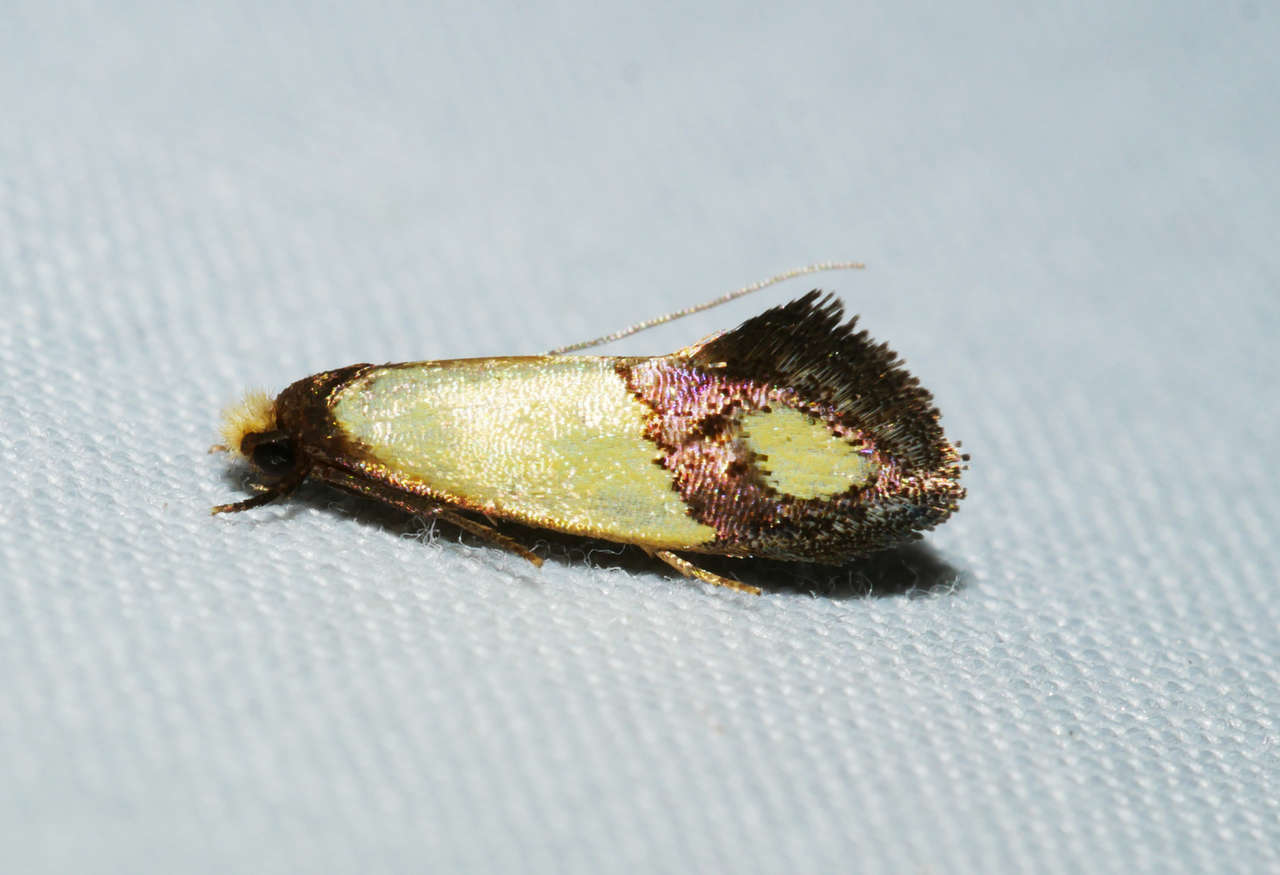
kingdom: Animalia
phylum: Arthropoda
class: Insecta
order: Lepidoptera
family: Tineidae
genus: Edosa
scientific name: Edosa fraudulens
